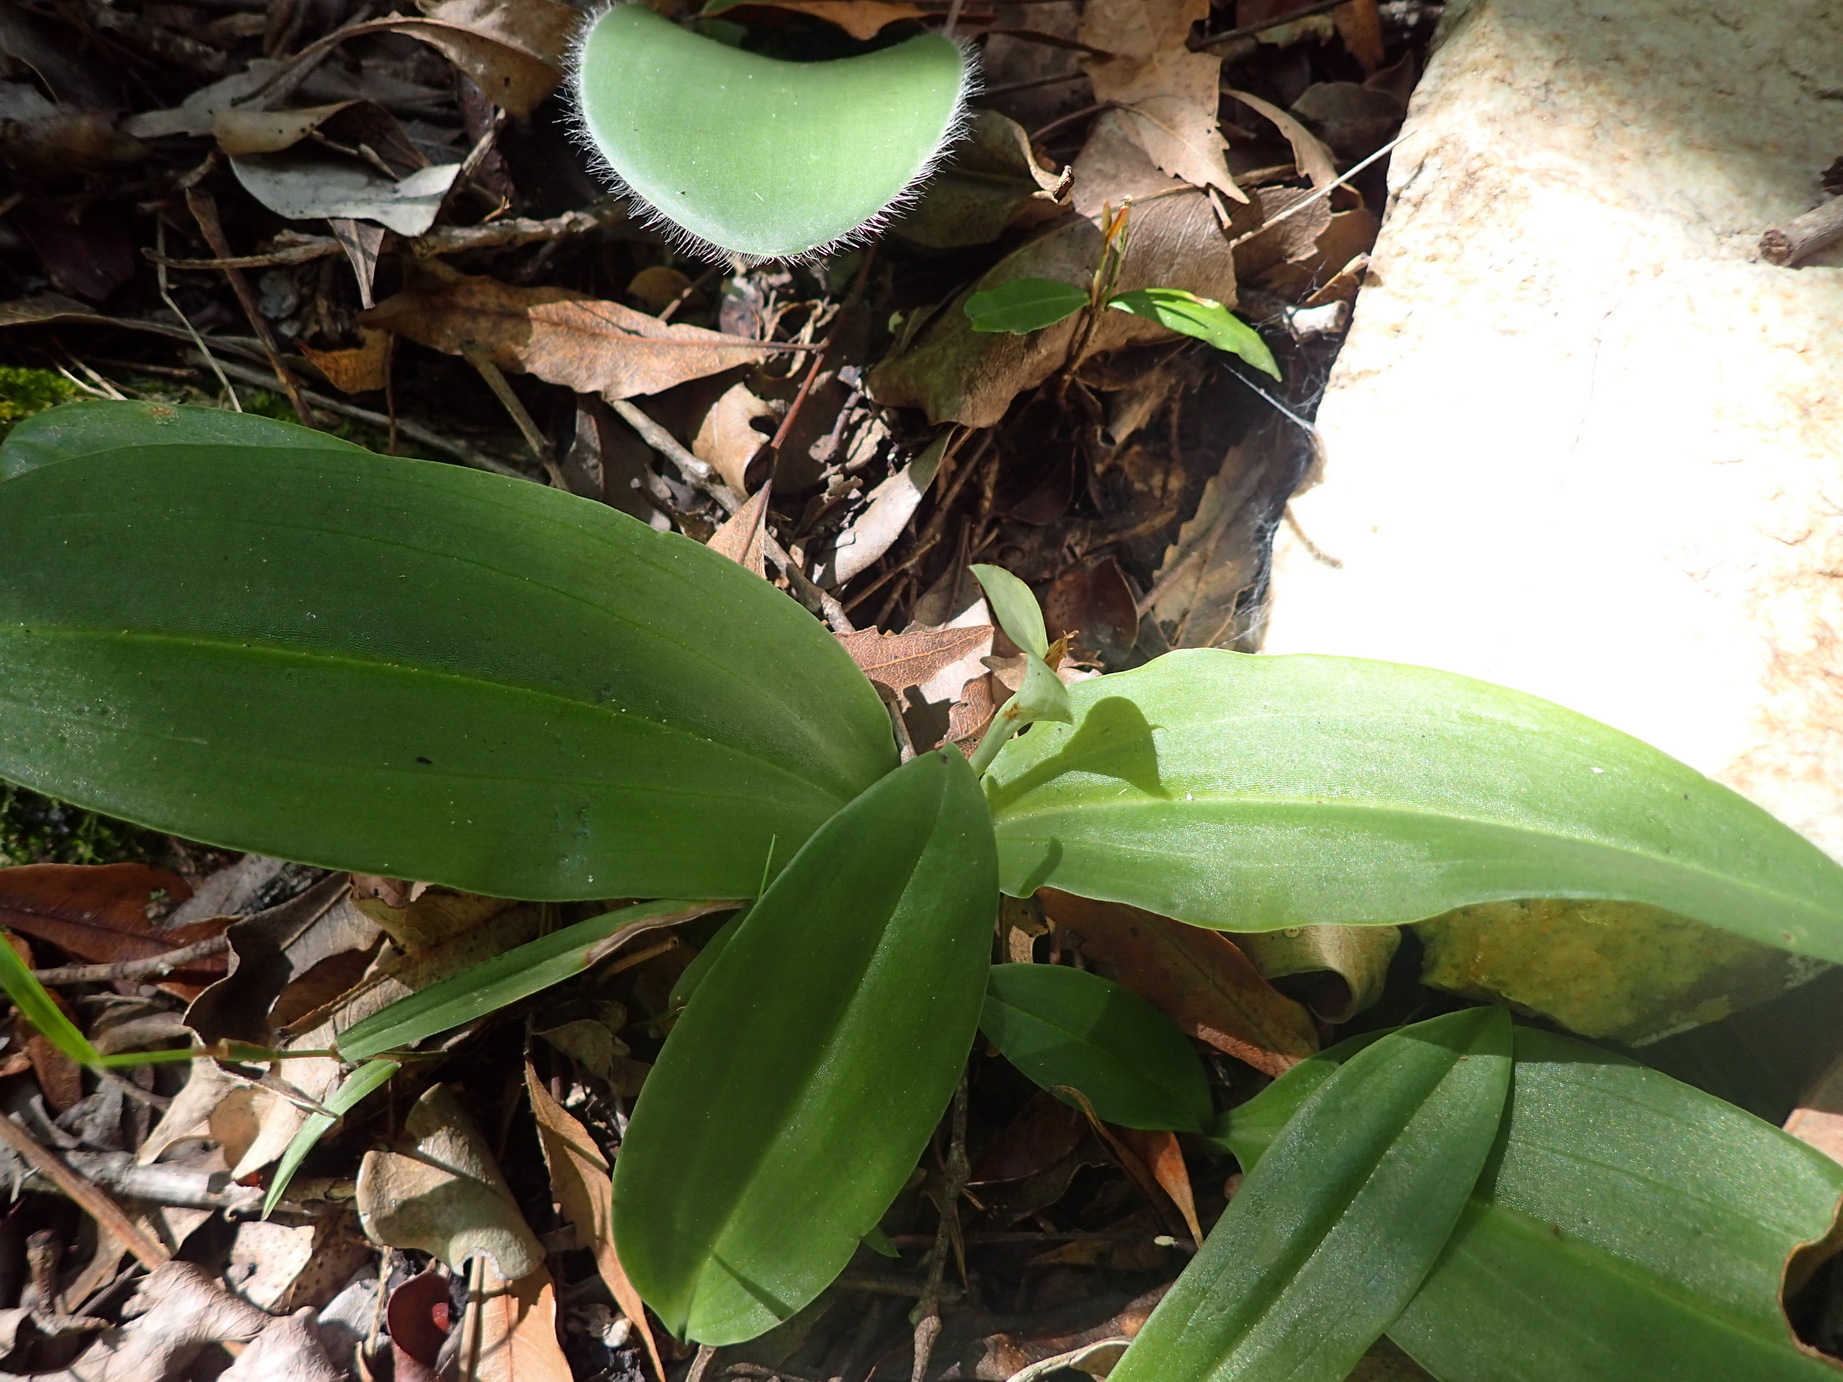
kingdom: Plantae
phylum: Tracheophyta
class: Liliopsida
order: Asparagales
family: Orchidaceae
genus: Habenaria
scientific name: Habenaria arenaria
